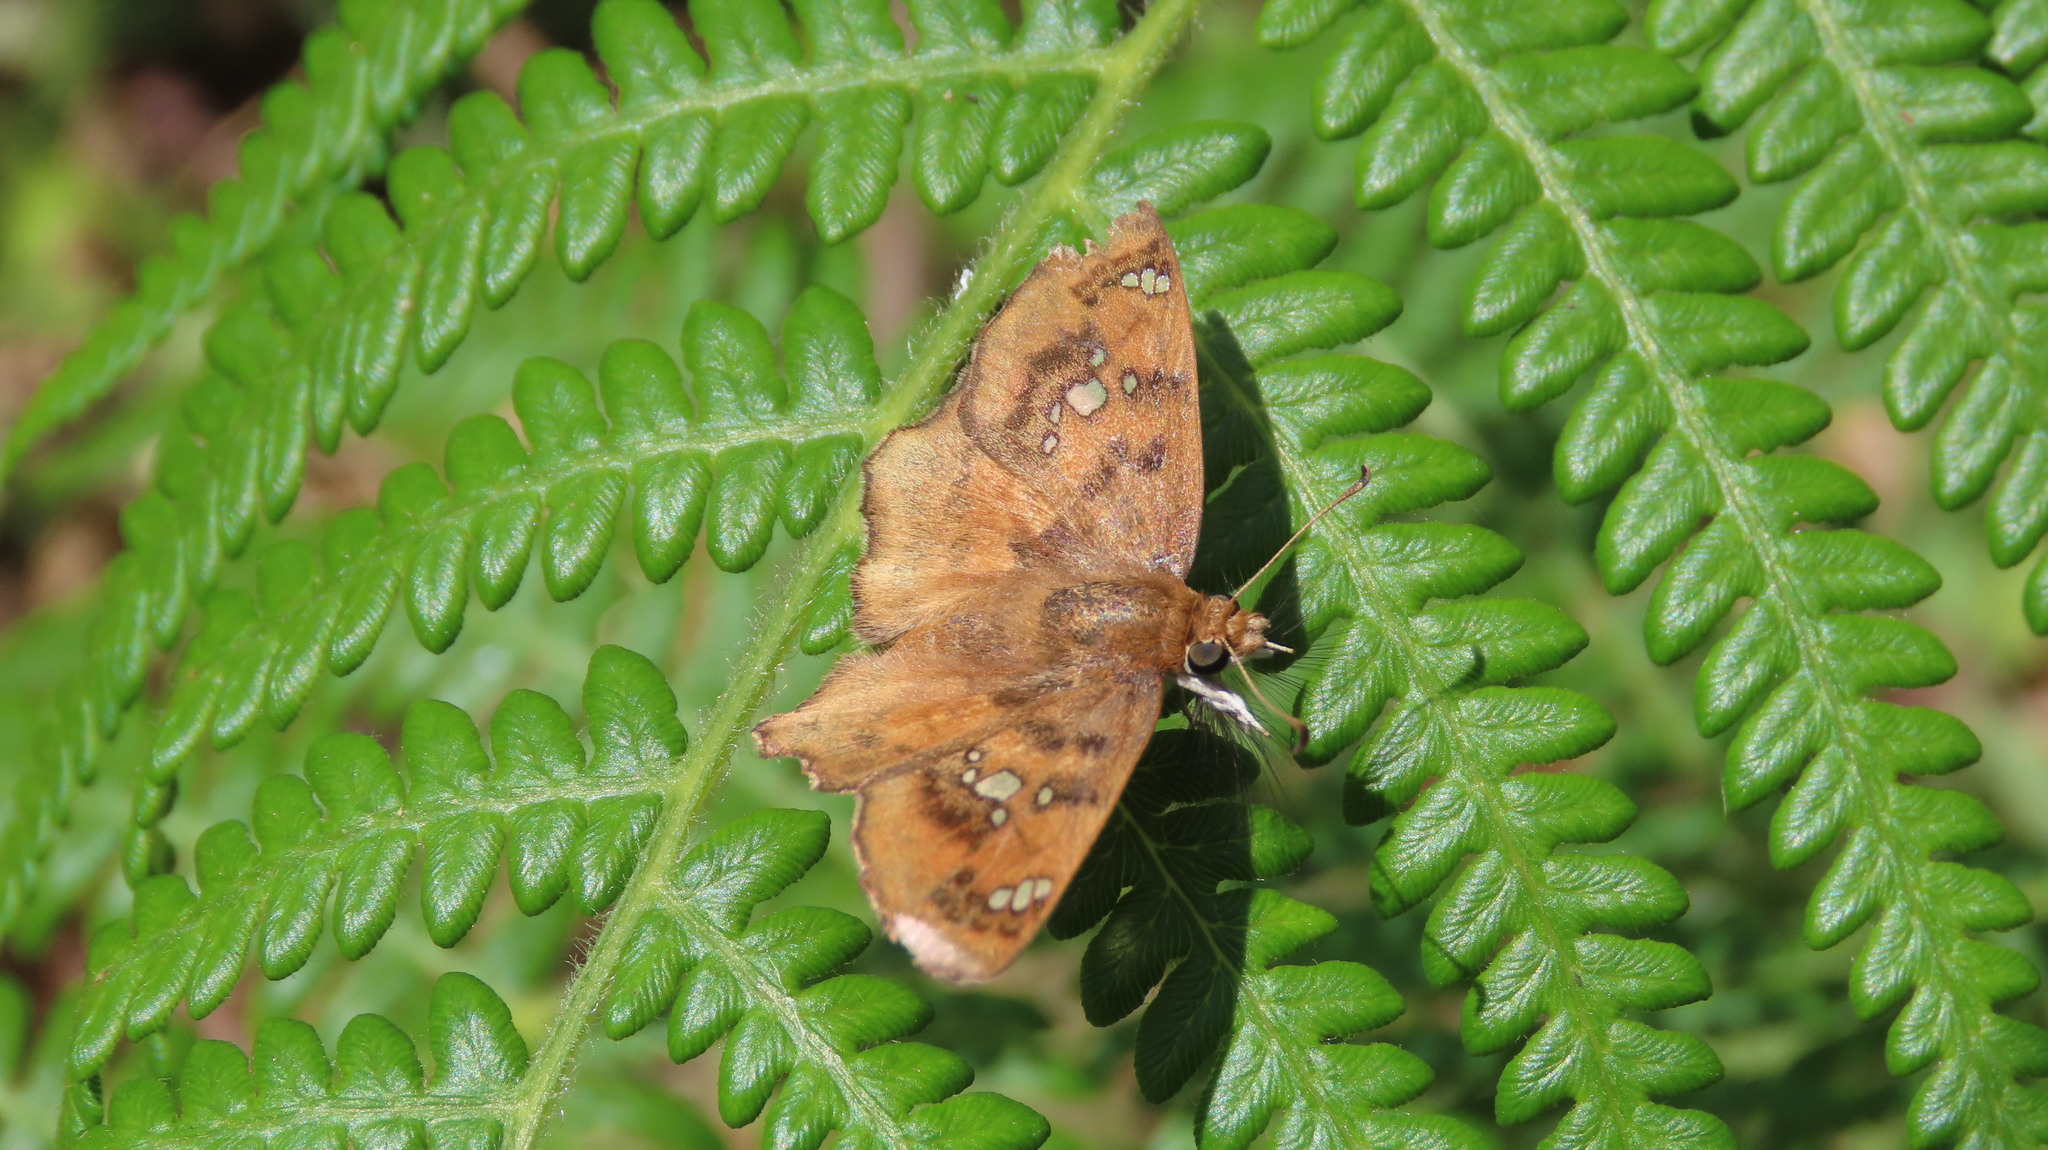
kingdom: Animalia
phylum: Arthropoda
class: Insecta
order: Lepidoptera
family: Hesperiidae
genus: Caprona
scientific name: Caprona ransonnettii
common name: Golden angle
